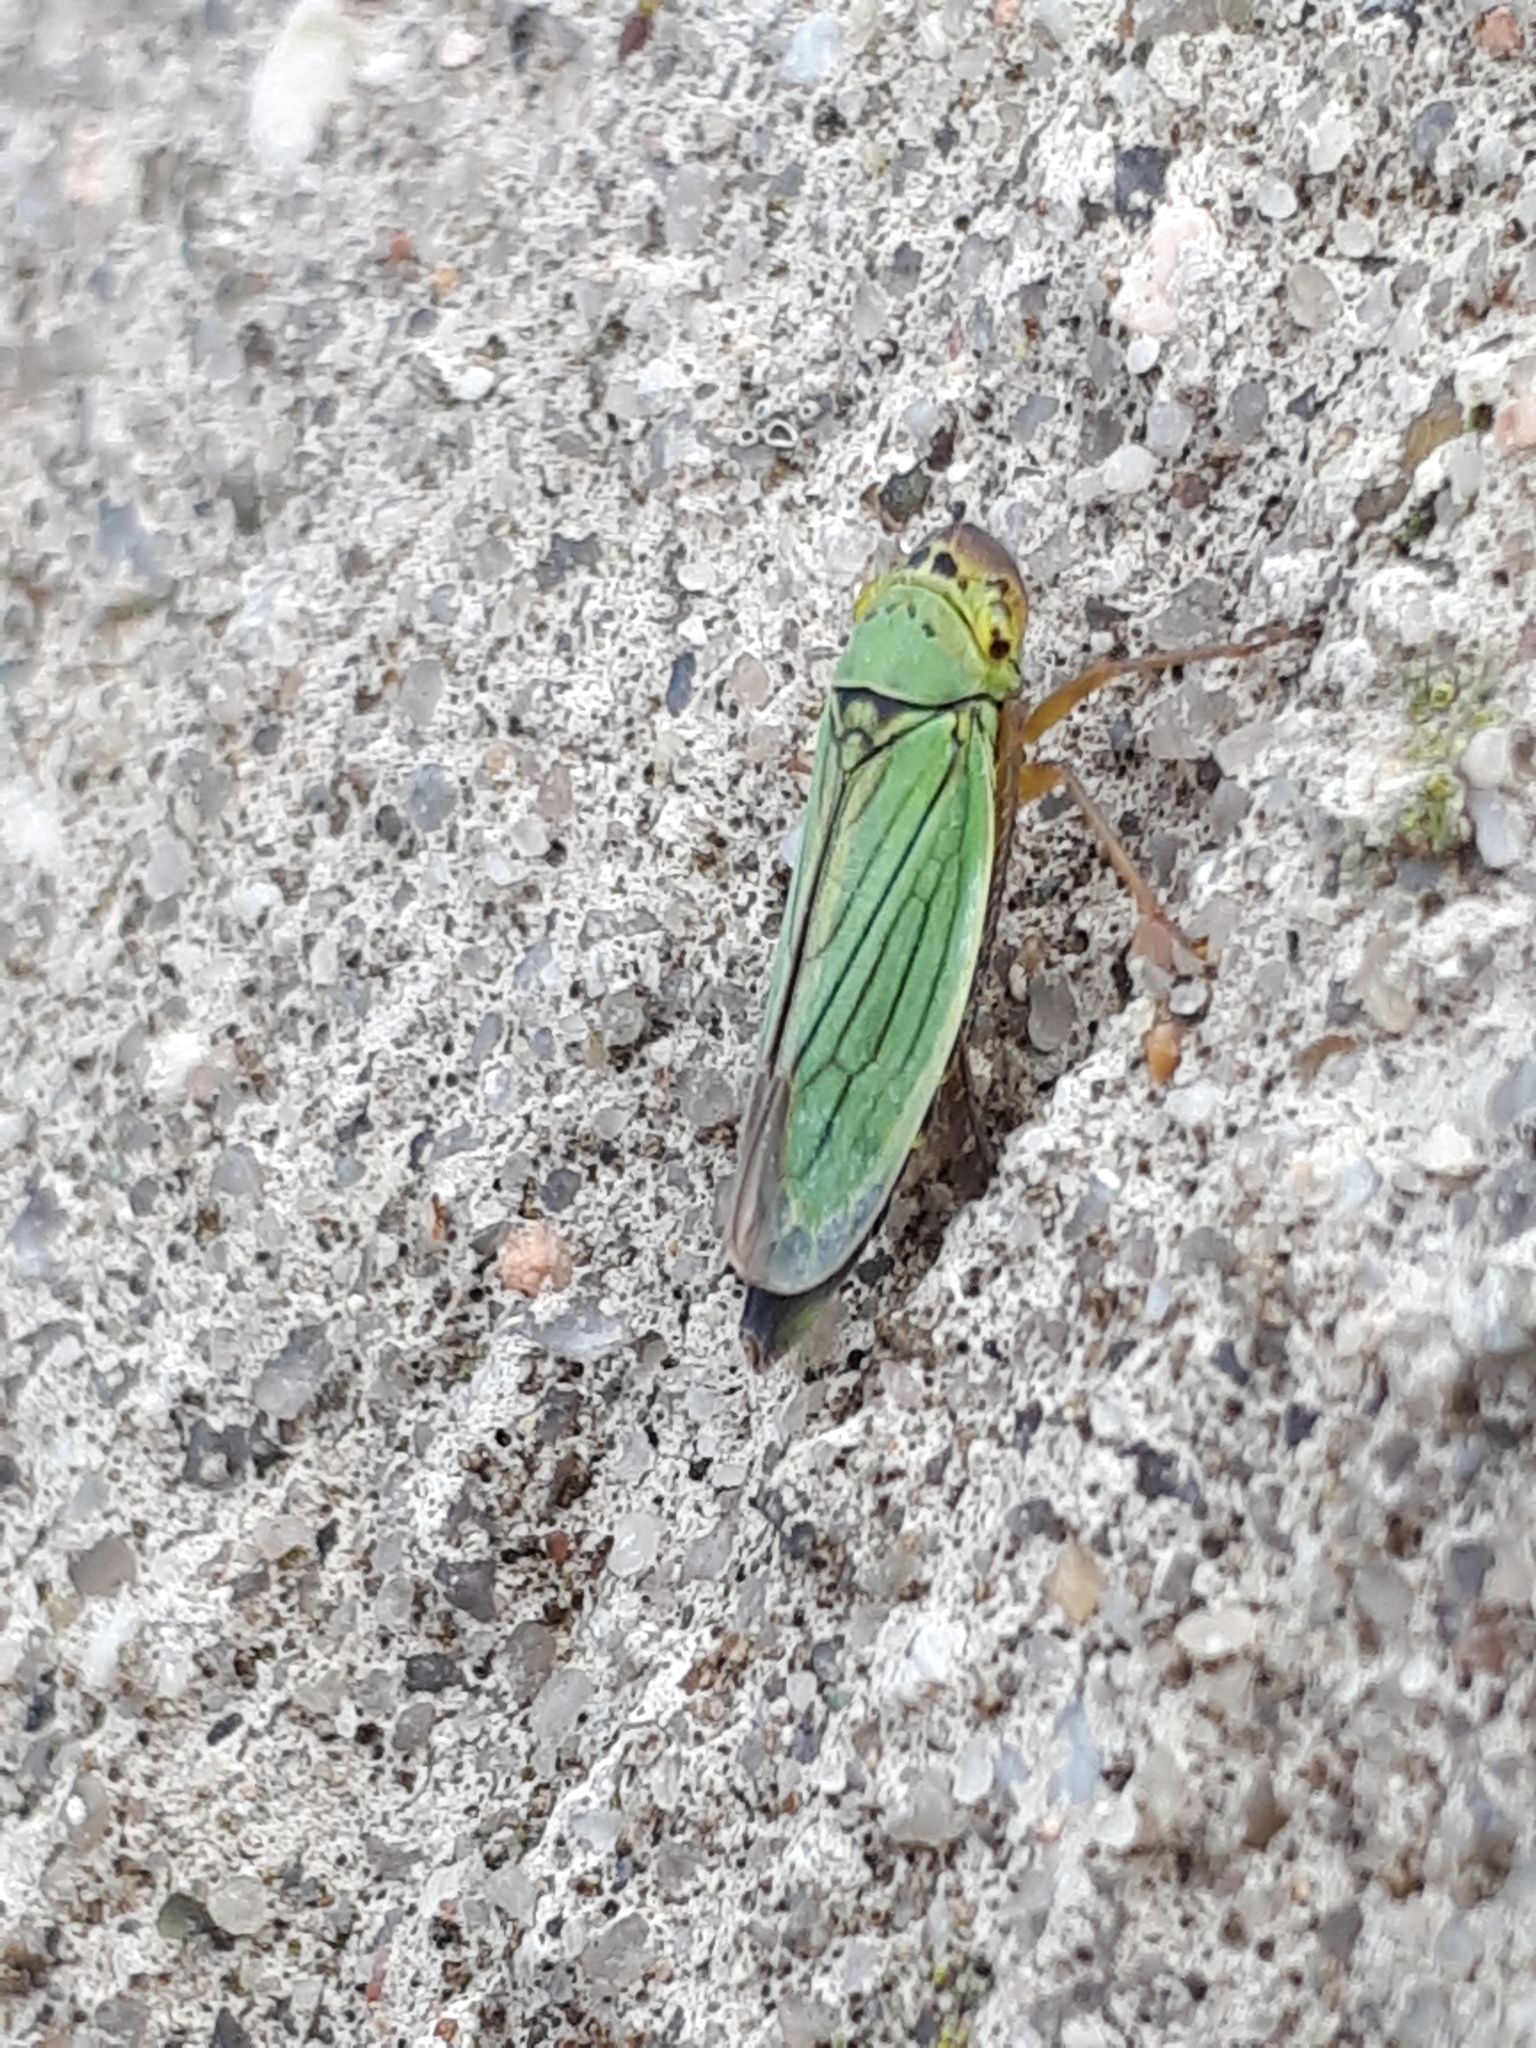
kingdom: Animalia
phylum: Arthropoda
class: Insecta
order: Hemiptera
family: Cicadellidae
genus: Cicadella
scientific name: Cicadella viridis
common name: Leafhopper
